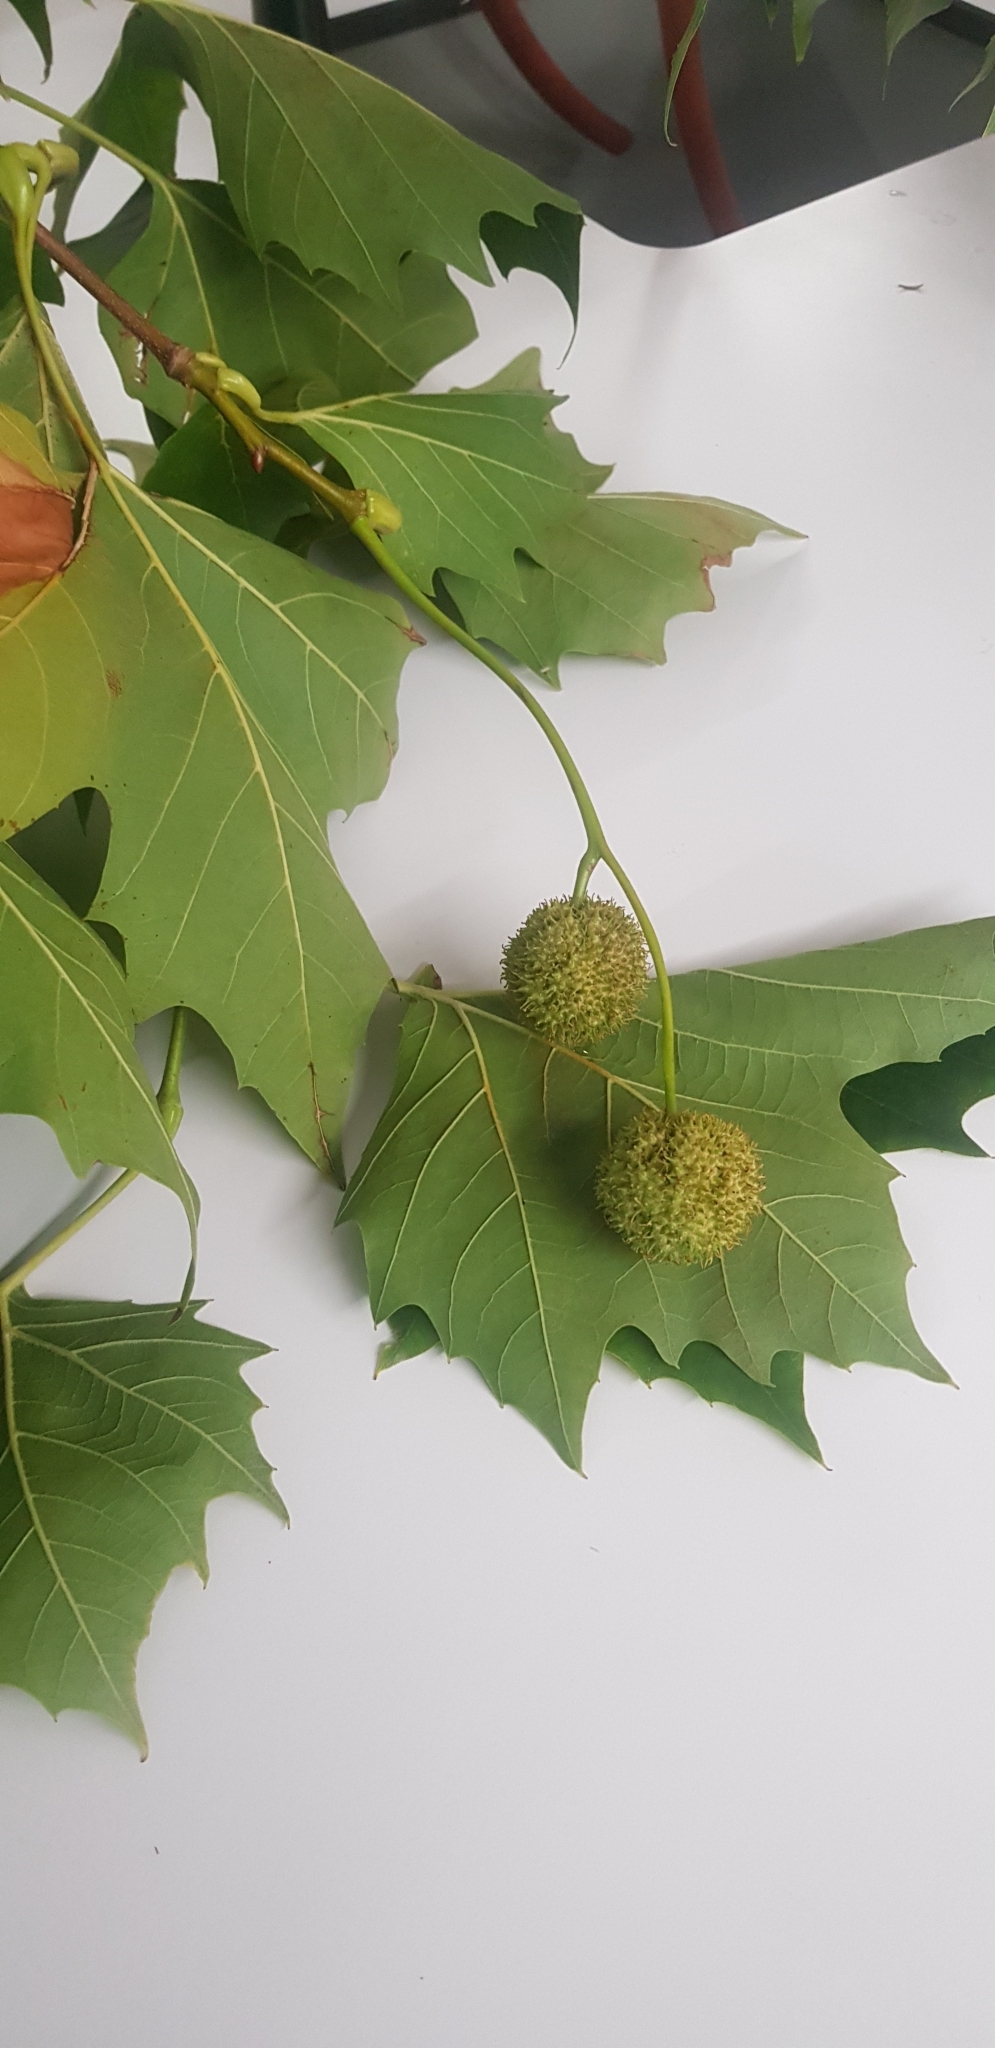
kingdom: Plantae
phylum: Tracheophyta
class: Magnoliopsida
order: Proteales
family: Platanaceae
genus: Platanus
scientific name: Platanus hispanica
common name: London plane
